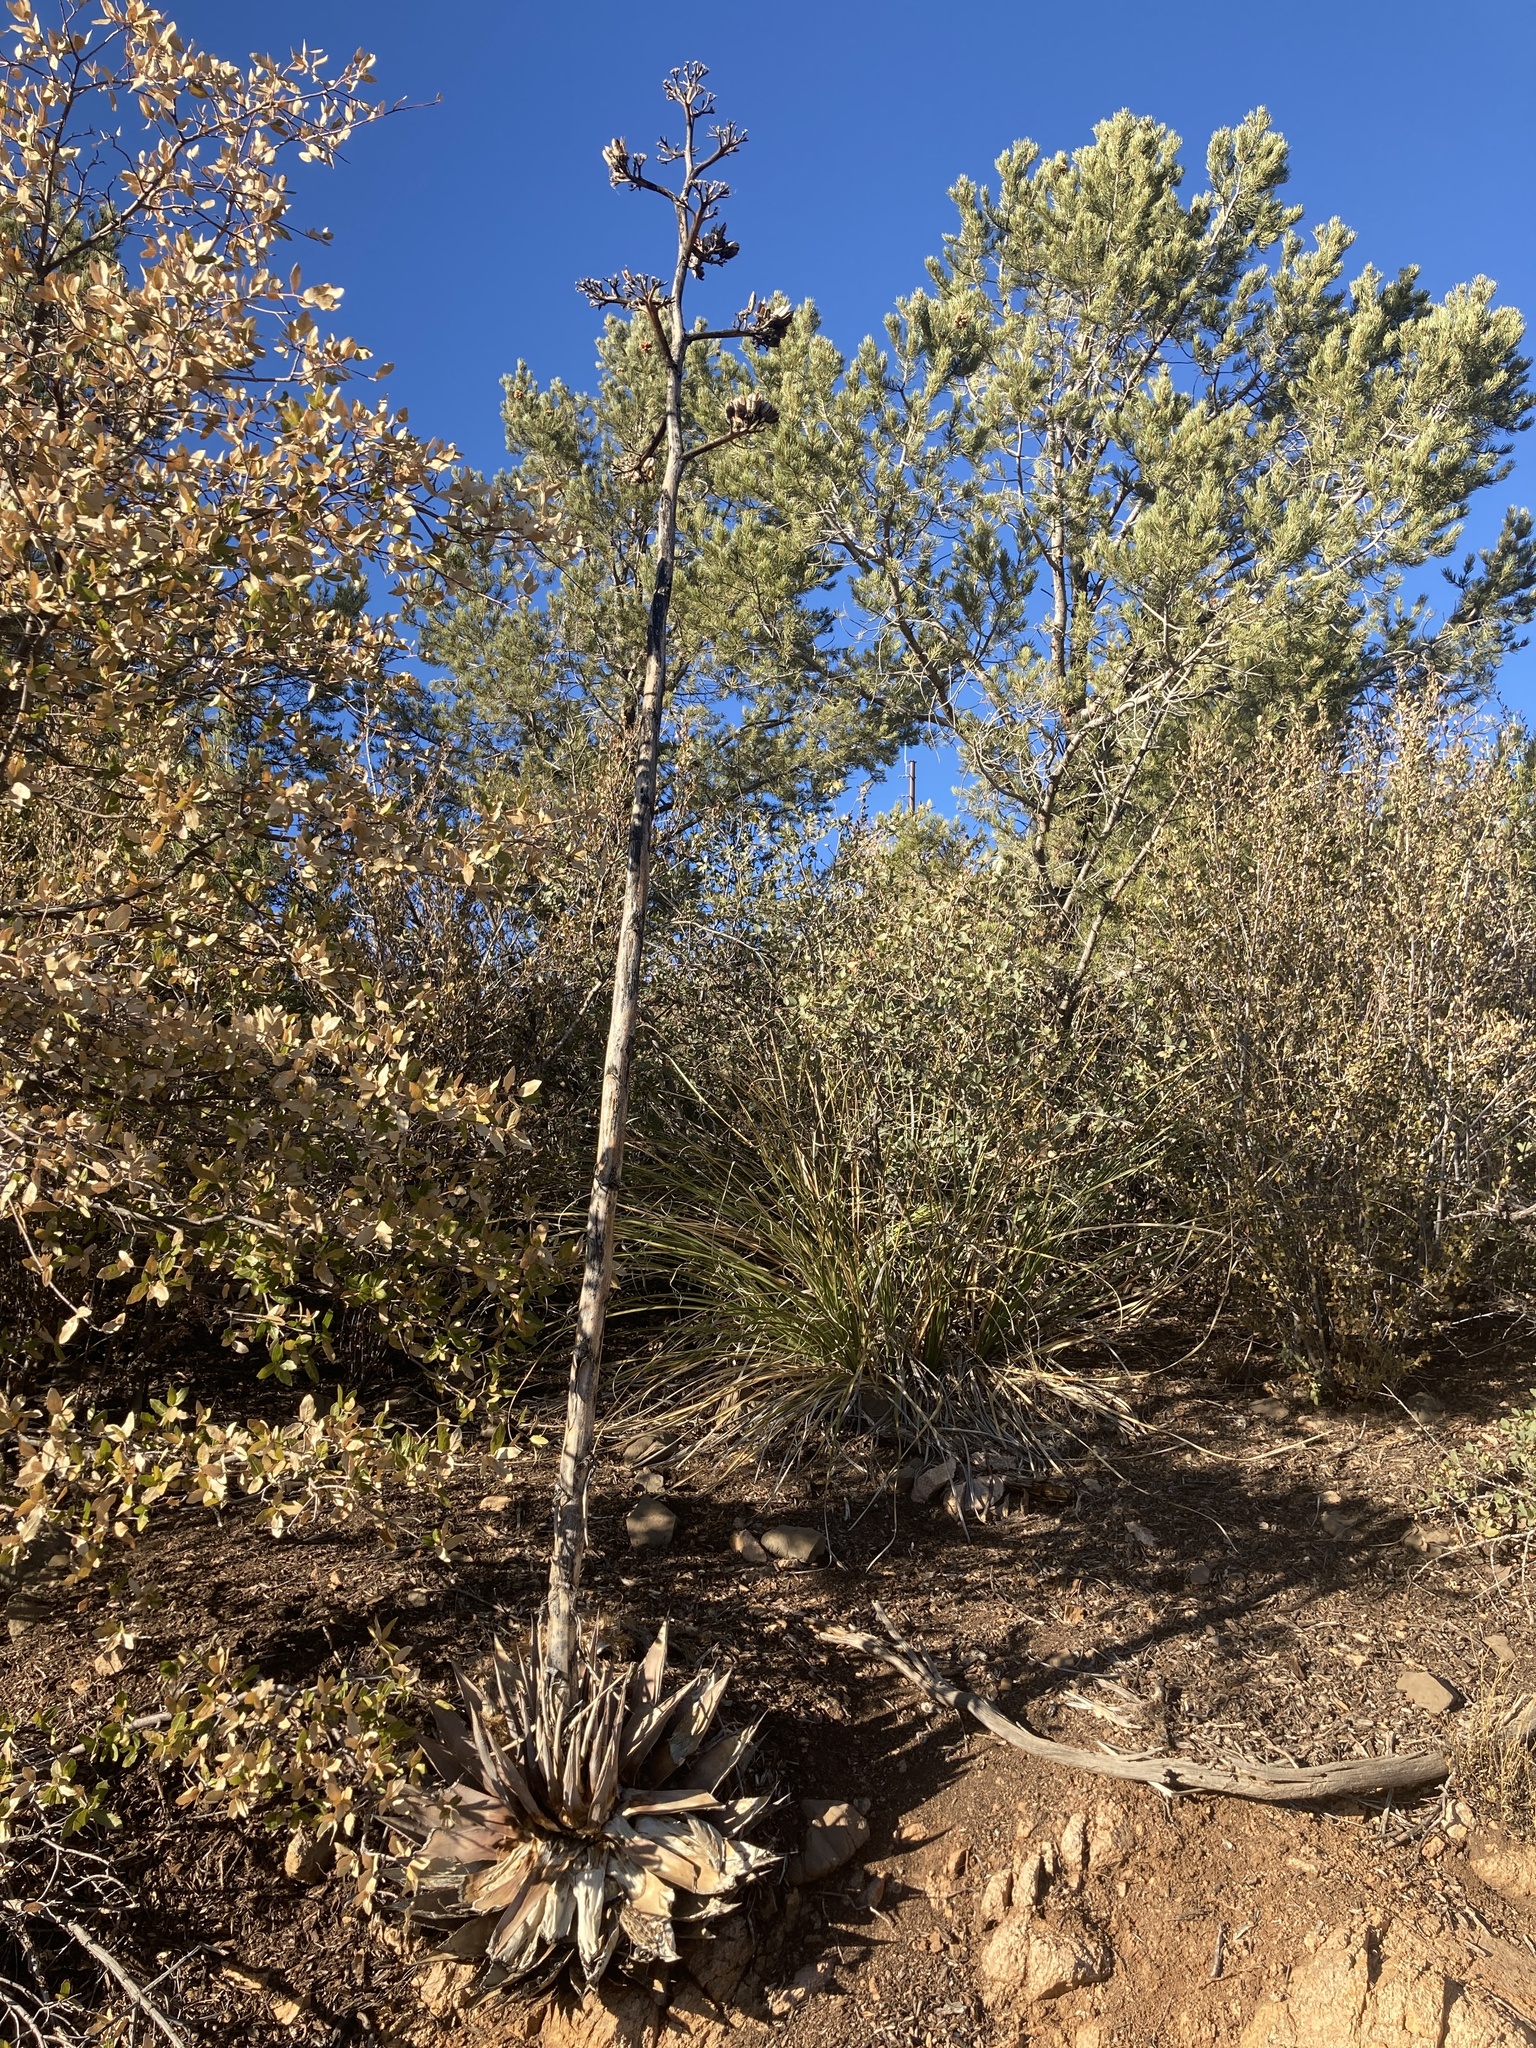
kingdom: Plantae
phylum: Tracheophyta
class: Liliopsida
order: Asparagales
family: Asparagaceae
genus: Agave
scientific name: Agave parryi
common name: Parry's agave
